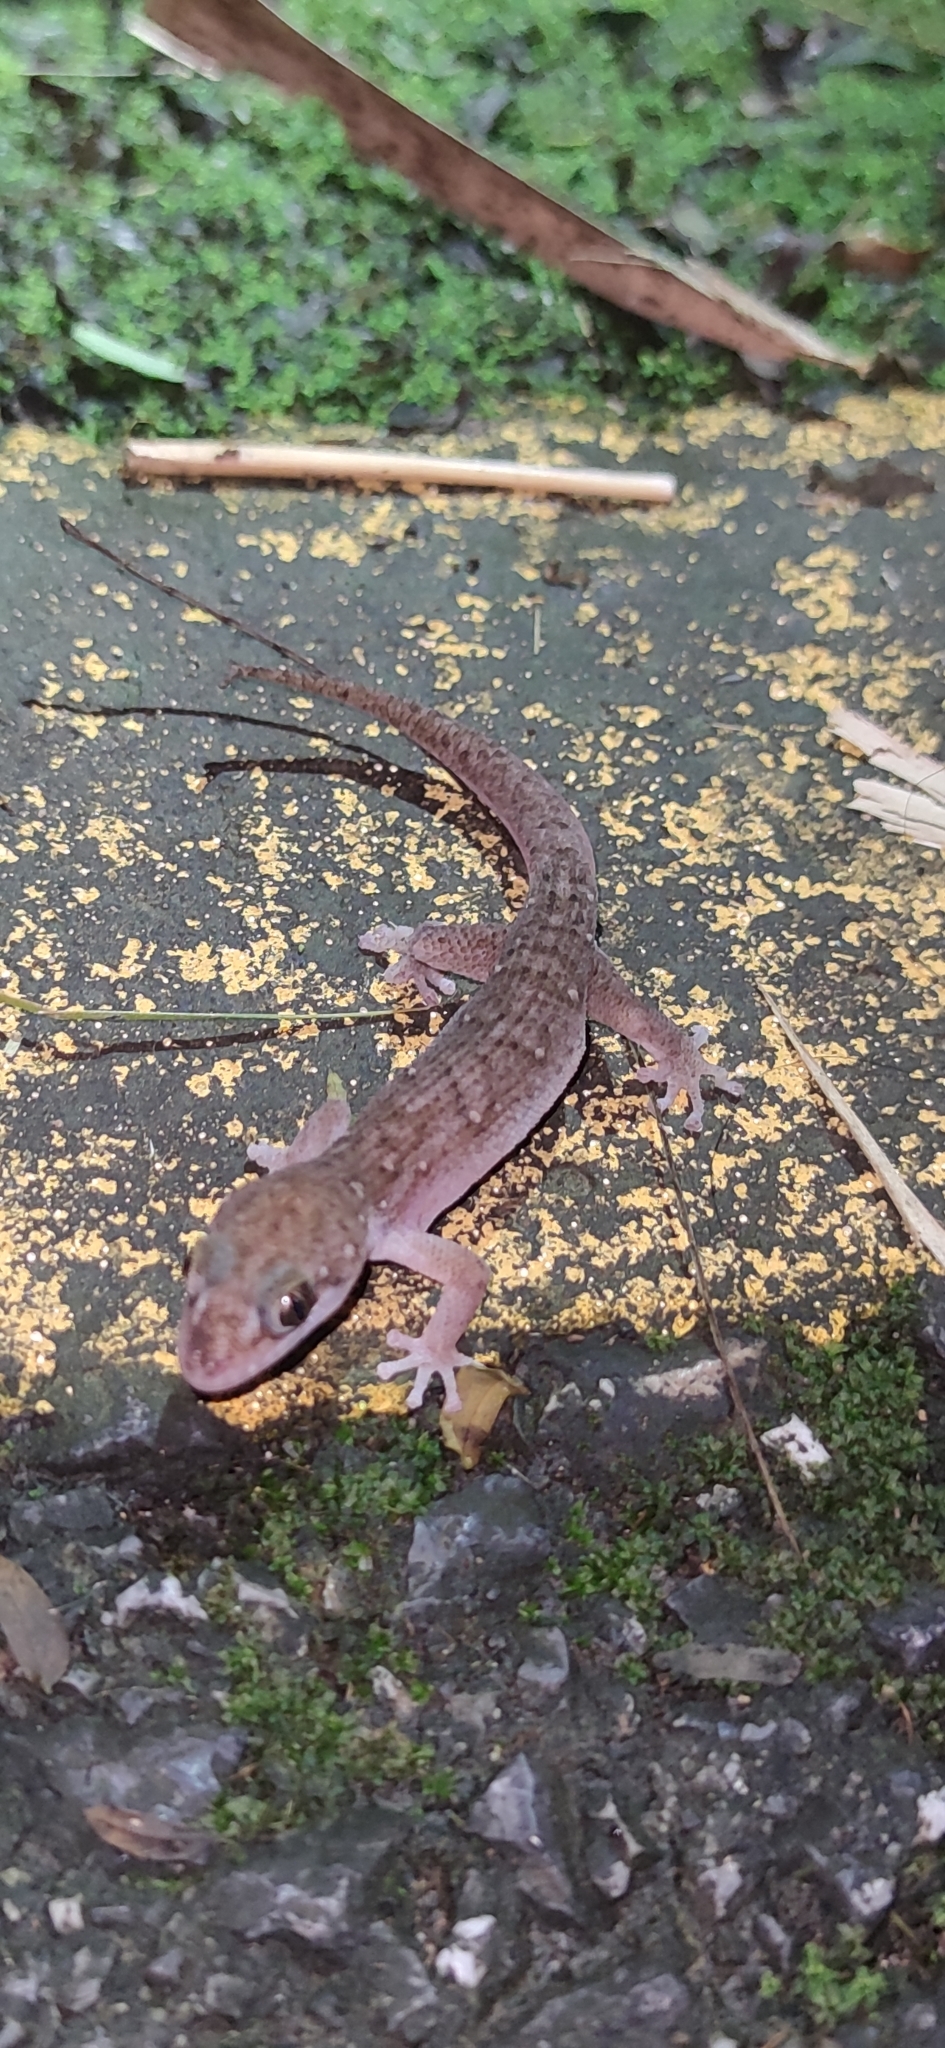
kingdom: Animalia
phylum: Chordata
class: Squamata
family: Gekkonidae
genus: Dixonius
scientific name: Dixonius siamensis
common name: Siamese leaf-toed gecko
